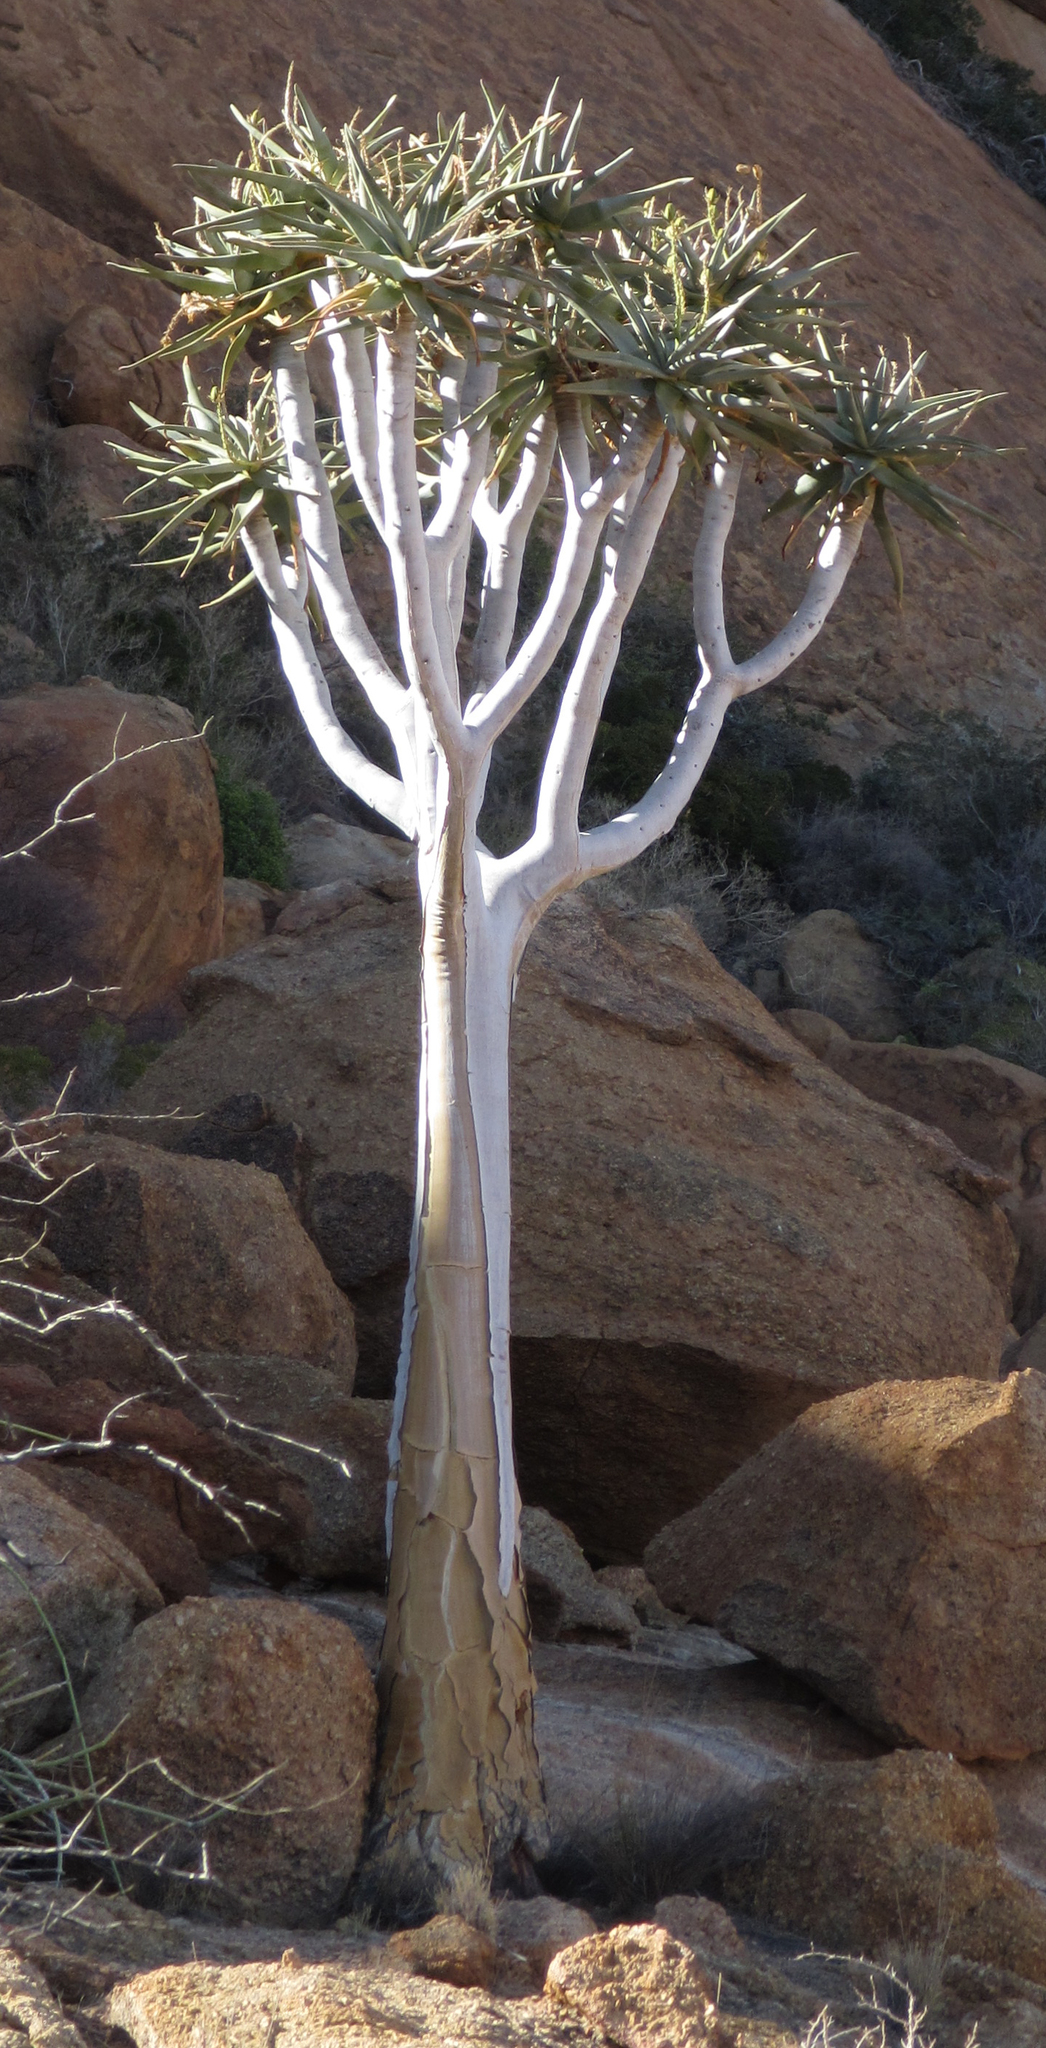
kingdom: Plantae
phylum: Tracheophyta
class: Liliopsida
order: Asparagales
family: Asphodelaceae
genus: Aloidendron
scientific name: Aloidendron dichotomum
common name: Quiver tree
